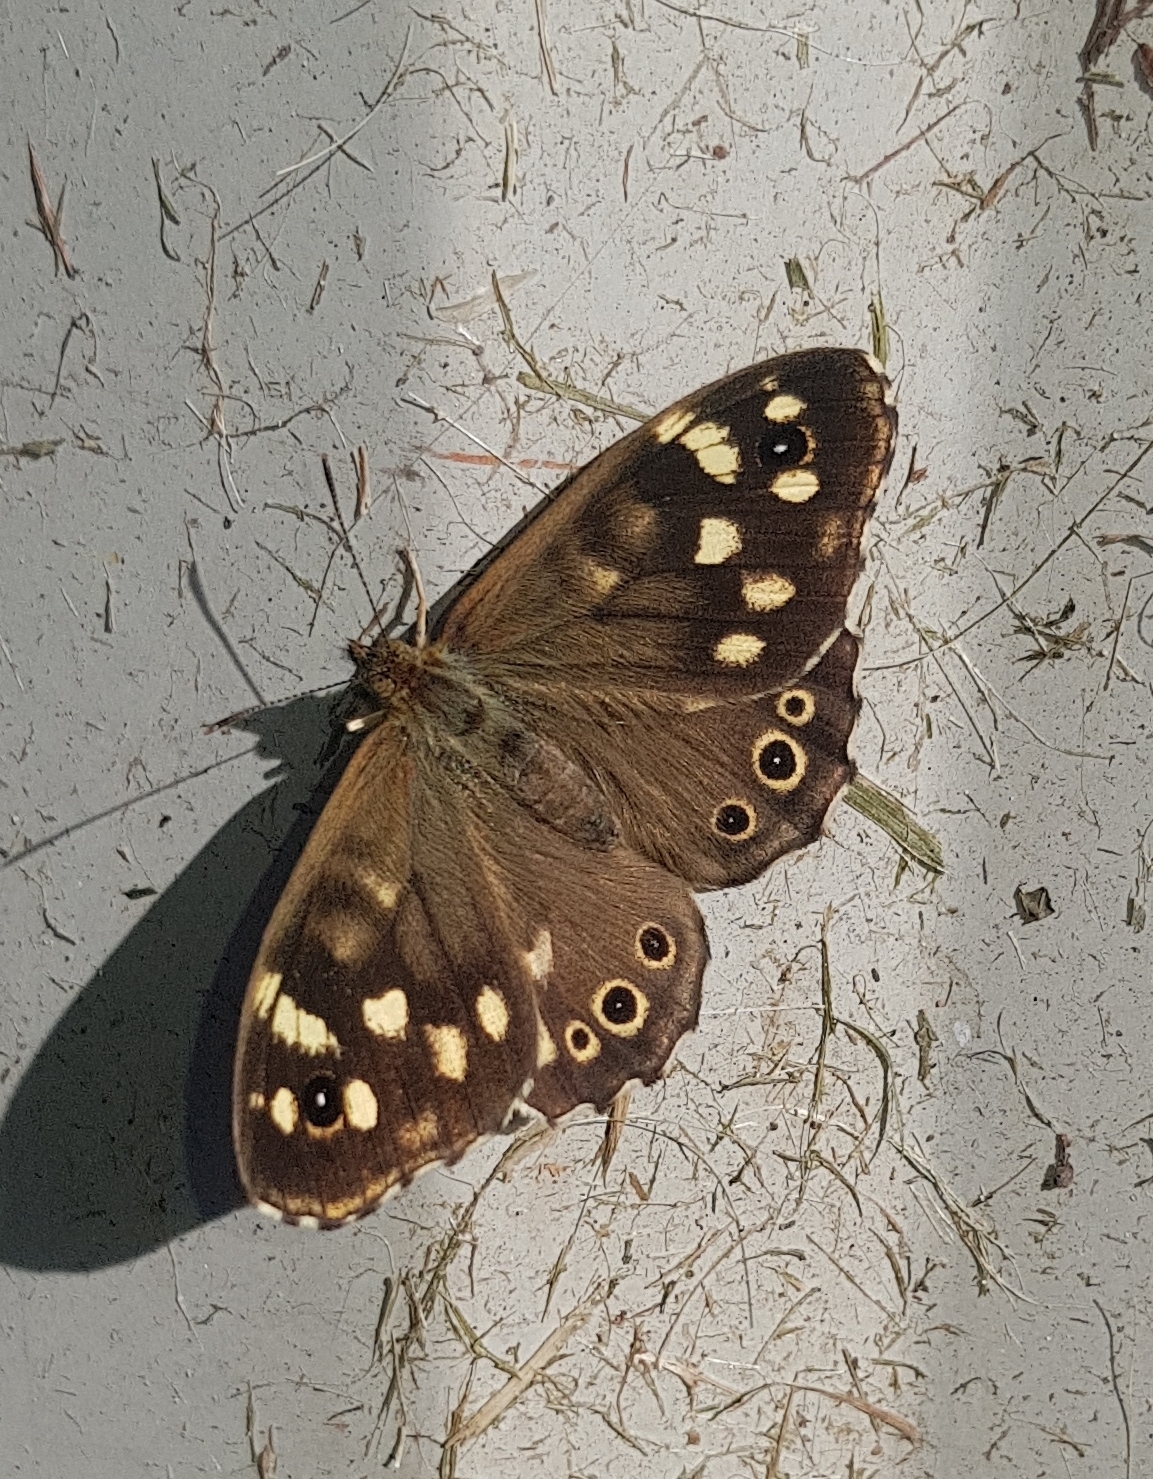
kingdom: Animalia
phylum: Arthropoda
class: Insecta
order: Lepidoptera
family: Nymphalidae
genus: Pararge
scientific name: Pararge aegeria
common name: Speckled wood
